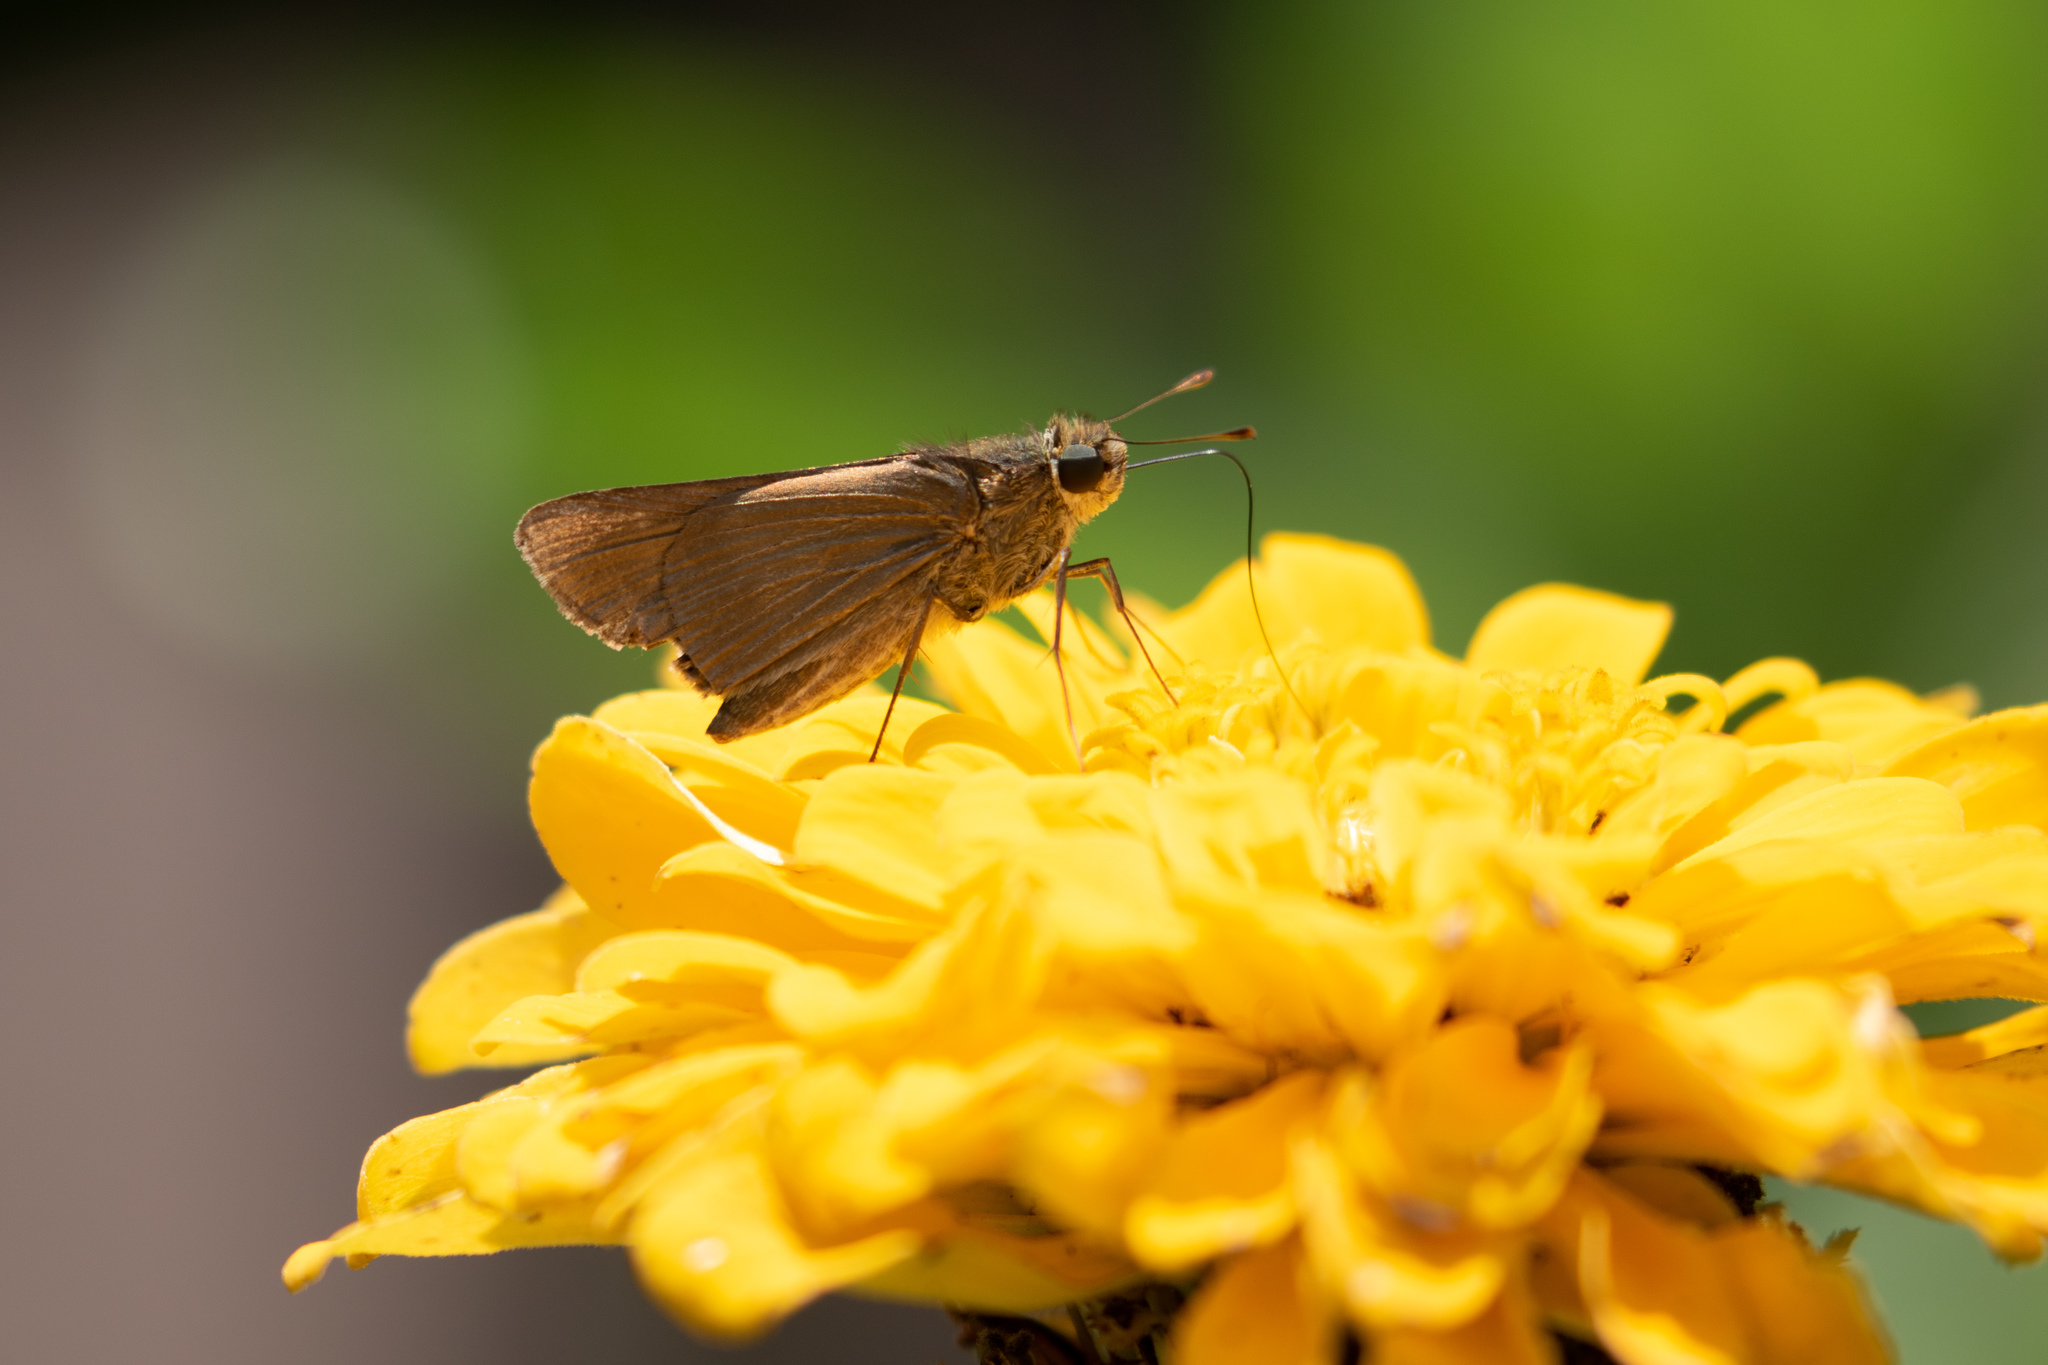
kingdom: Animalia
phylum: Arthropoda
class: Insecta
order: Lepidoptera
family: Hesperiidae
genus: Panoquina
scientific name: Panoquina ocola
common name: Ocola skipper
